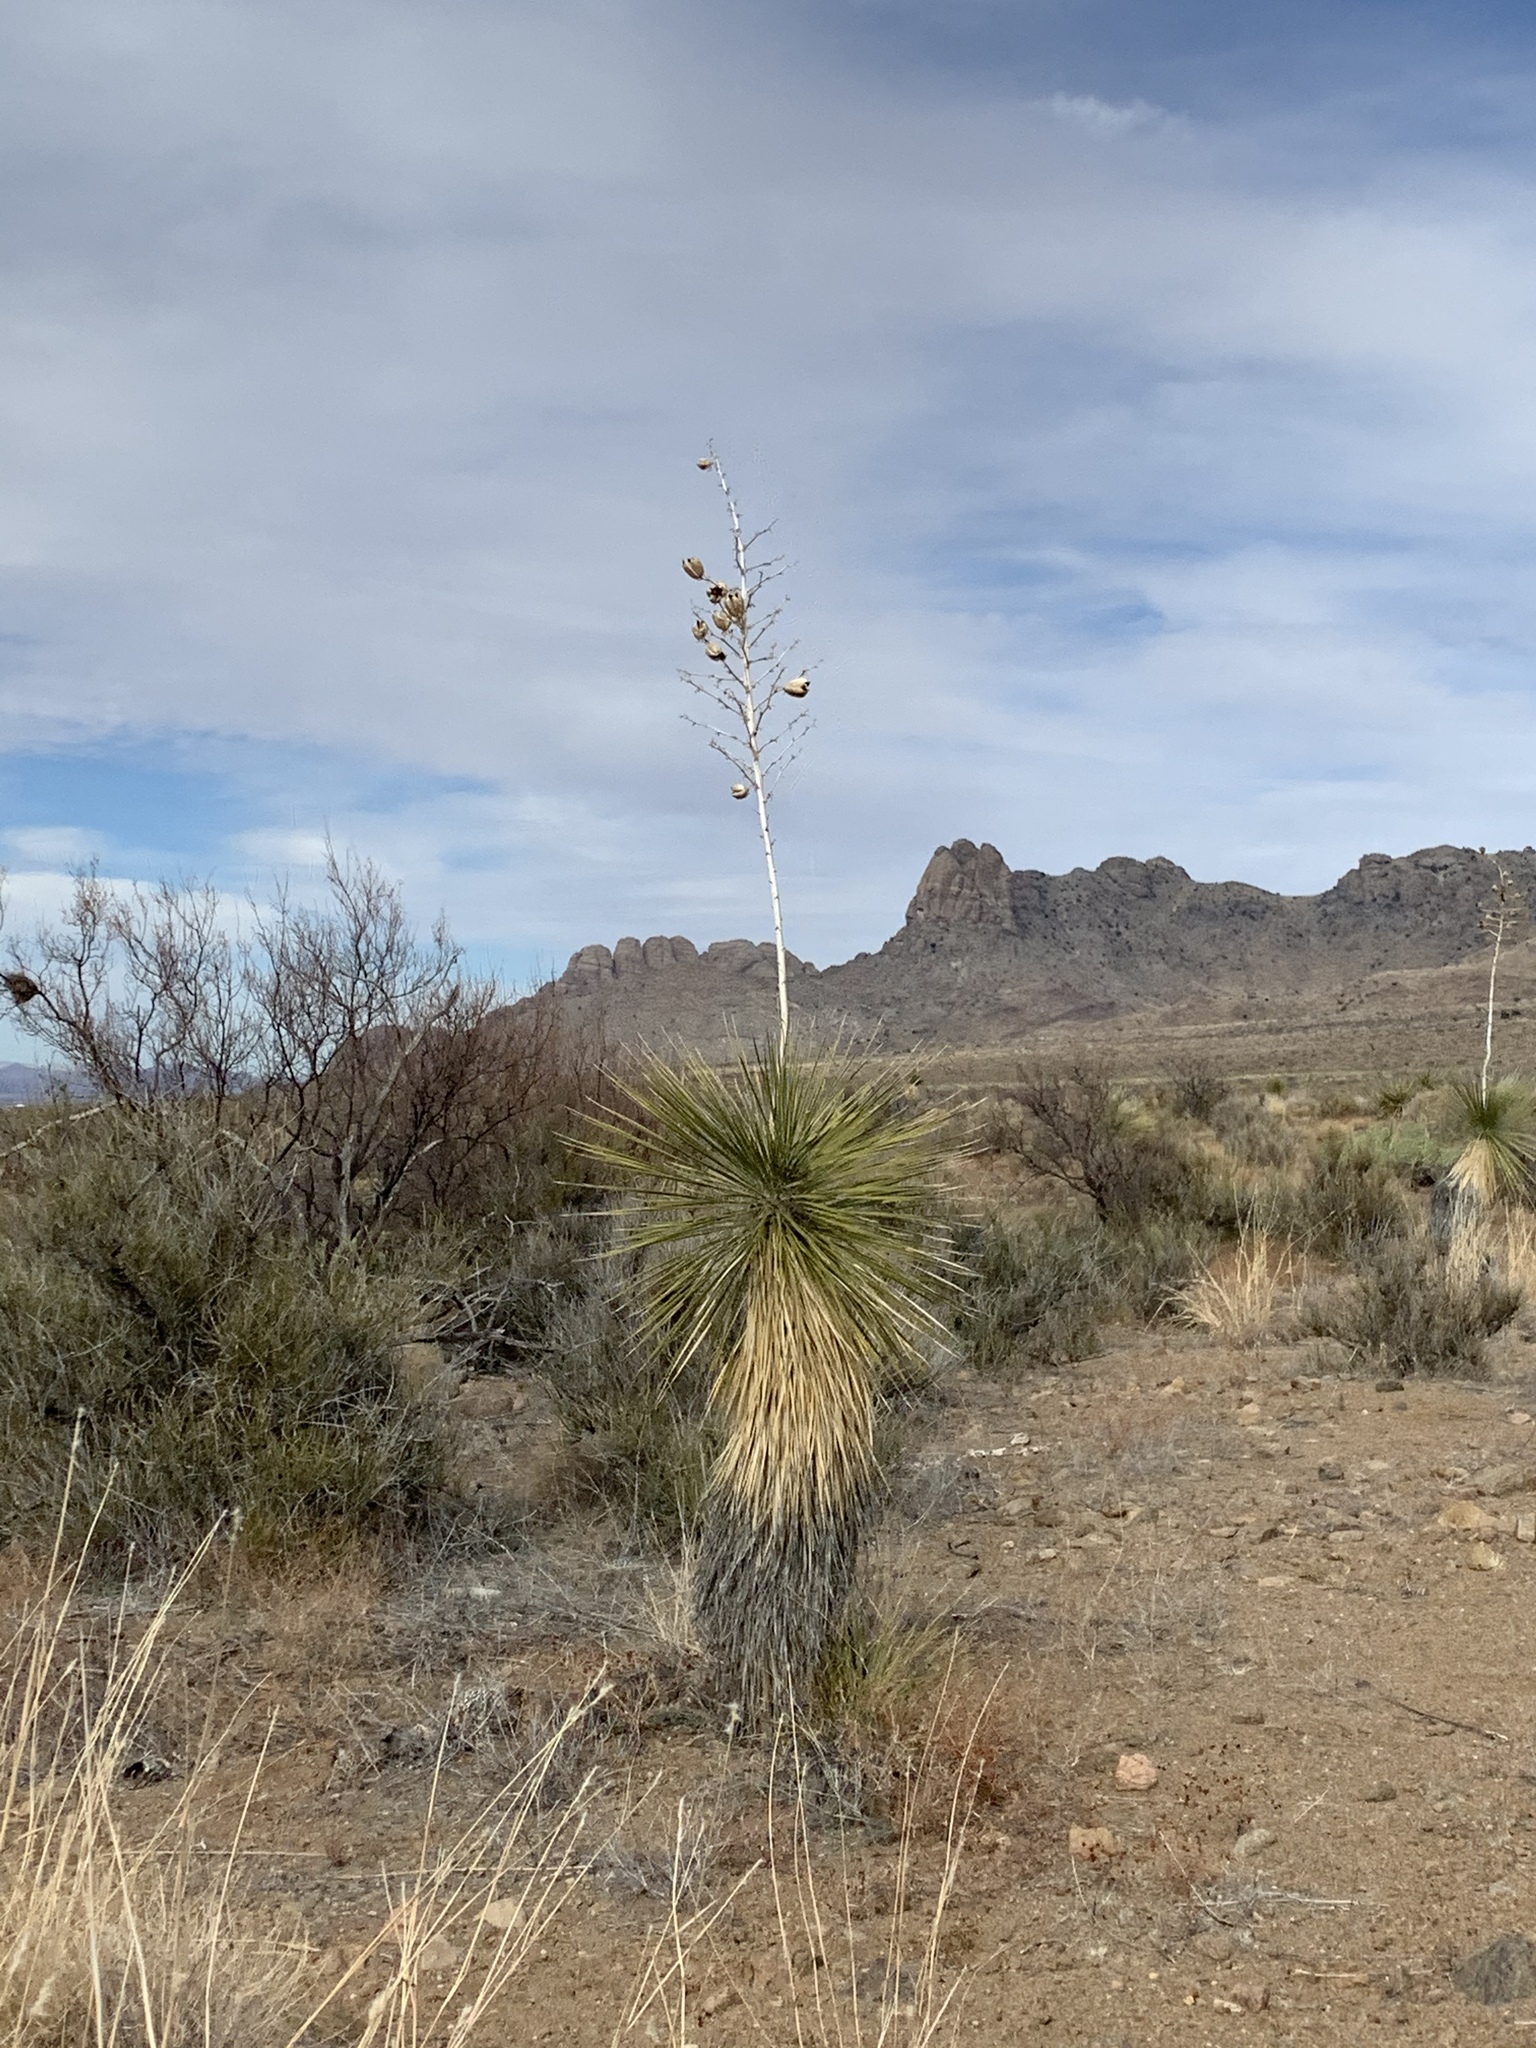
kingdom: Plantae
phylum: Tracheophyta
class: Liliopsida
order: Asparagales
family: Asparagaceae
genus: Yucca
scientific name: Yucca elata
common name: Palmella
